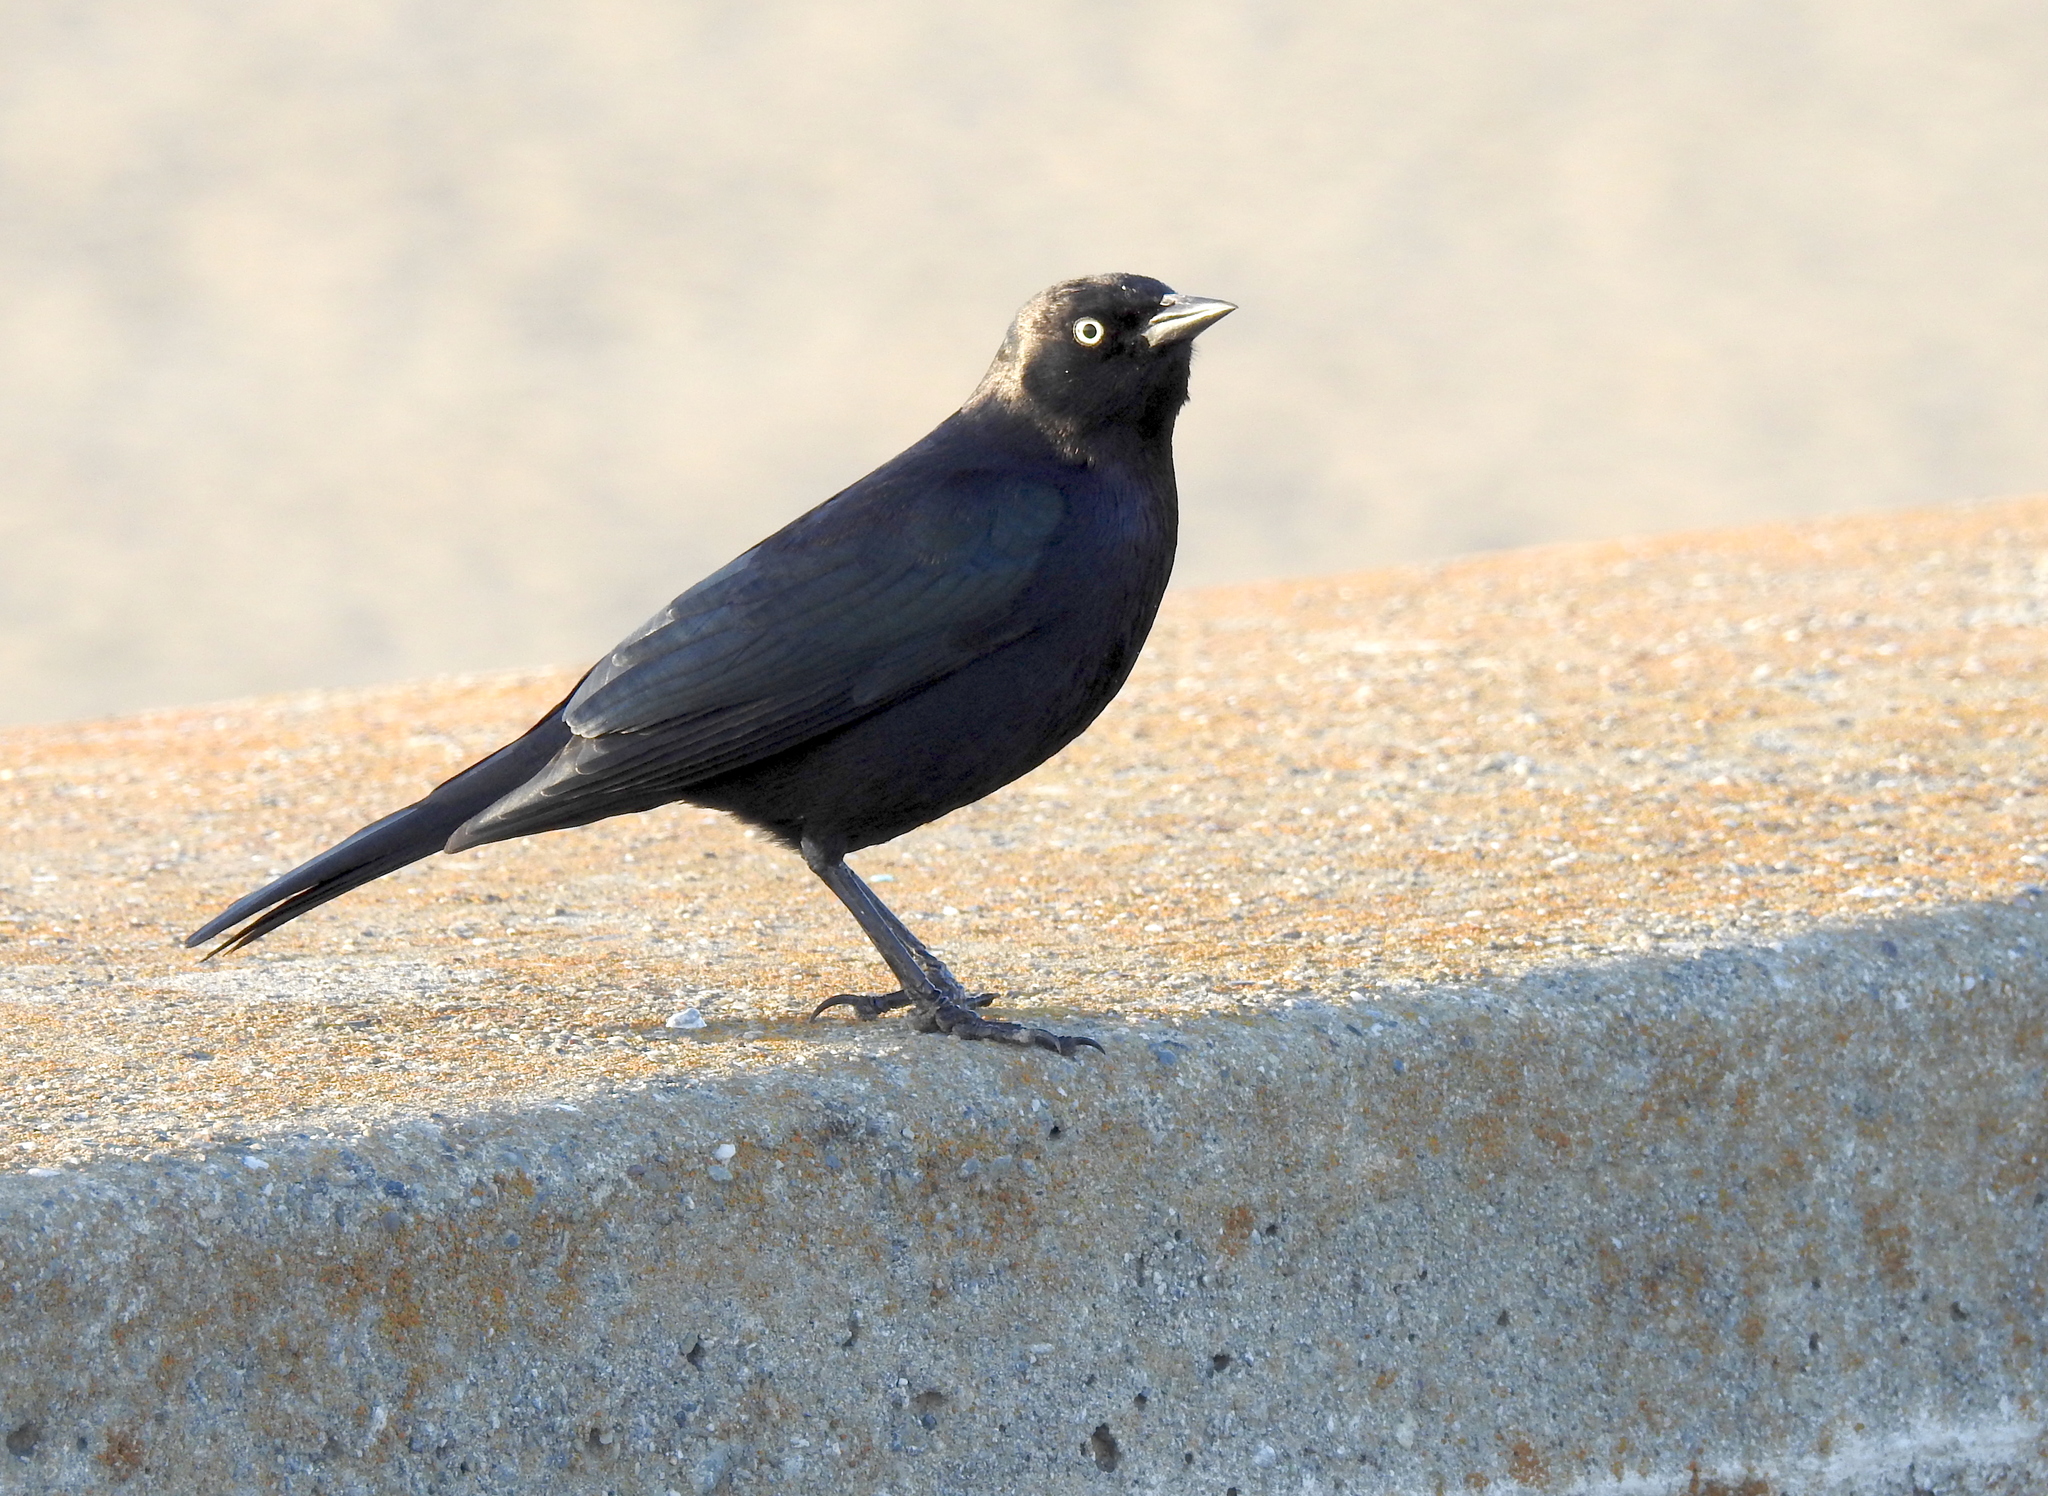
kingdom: Animalia
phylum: Chordata
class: Aves
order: Passeriformes
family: Icteridae
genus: Euphagus
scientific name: Euphagus cyanocephalus
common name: Brewer's blackbird
